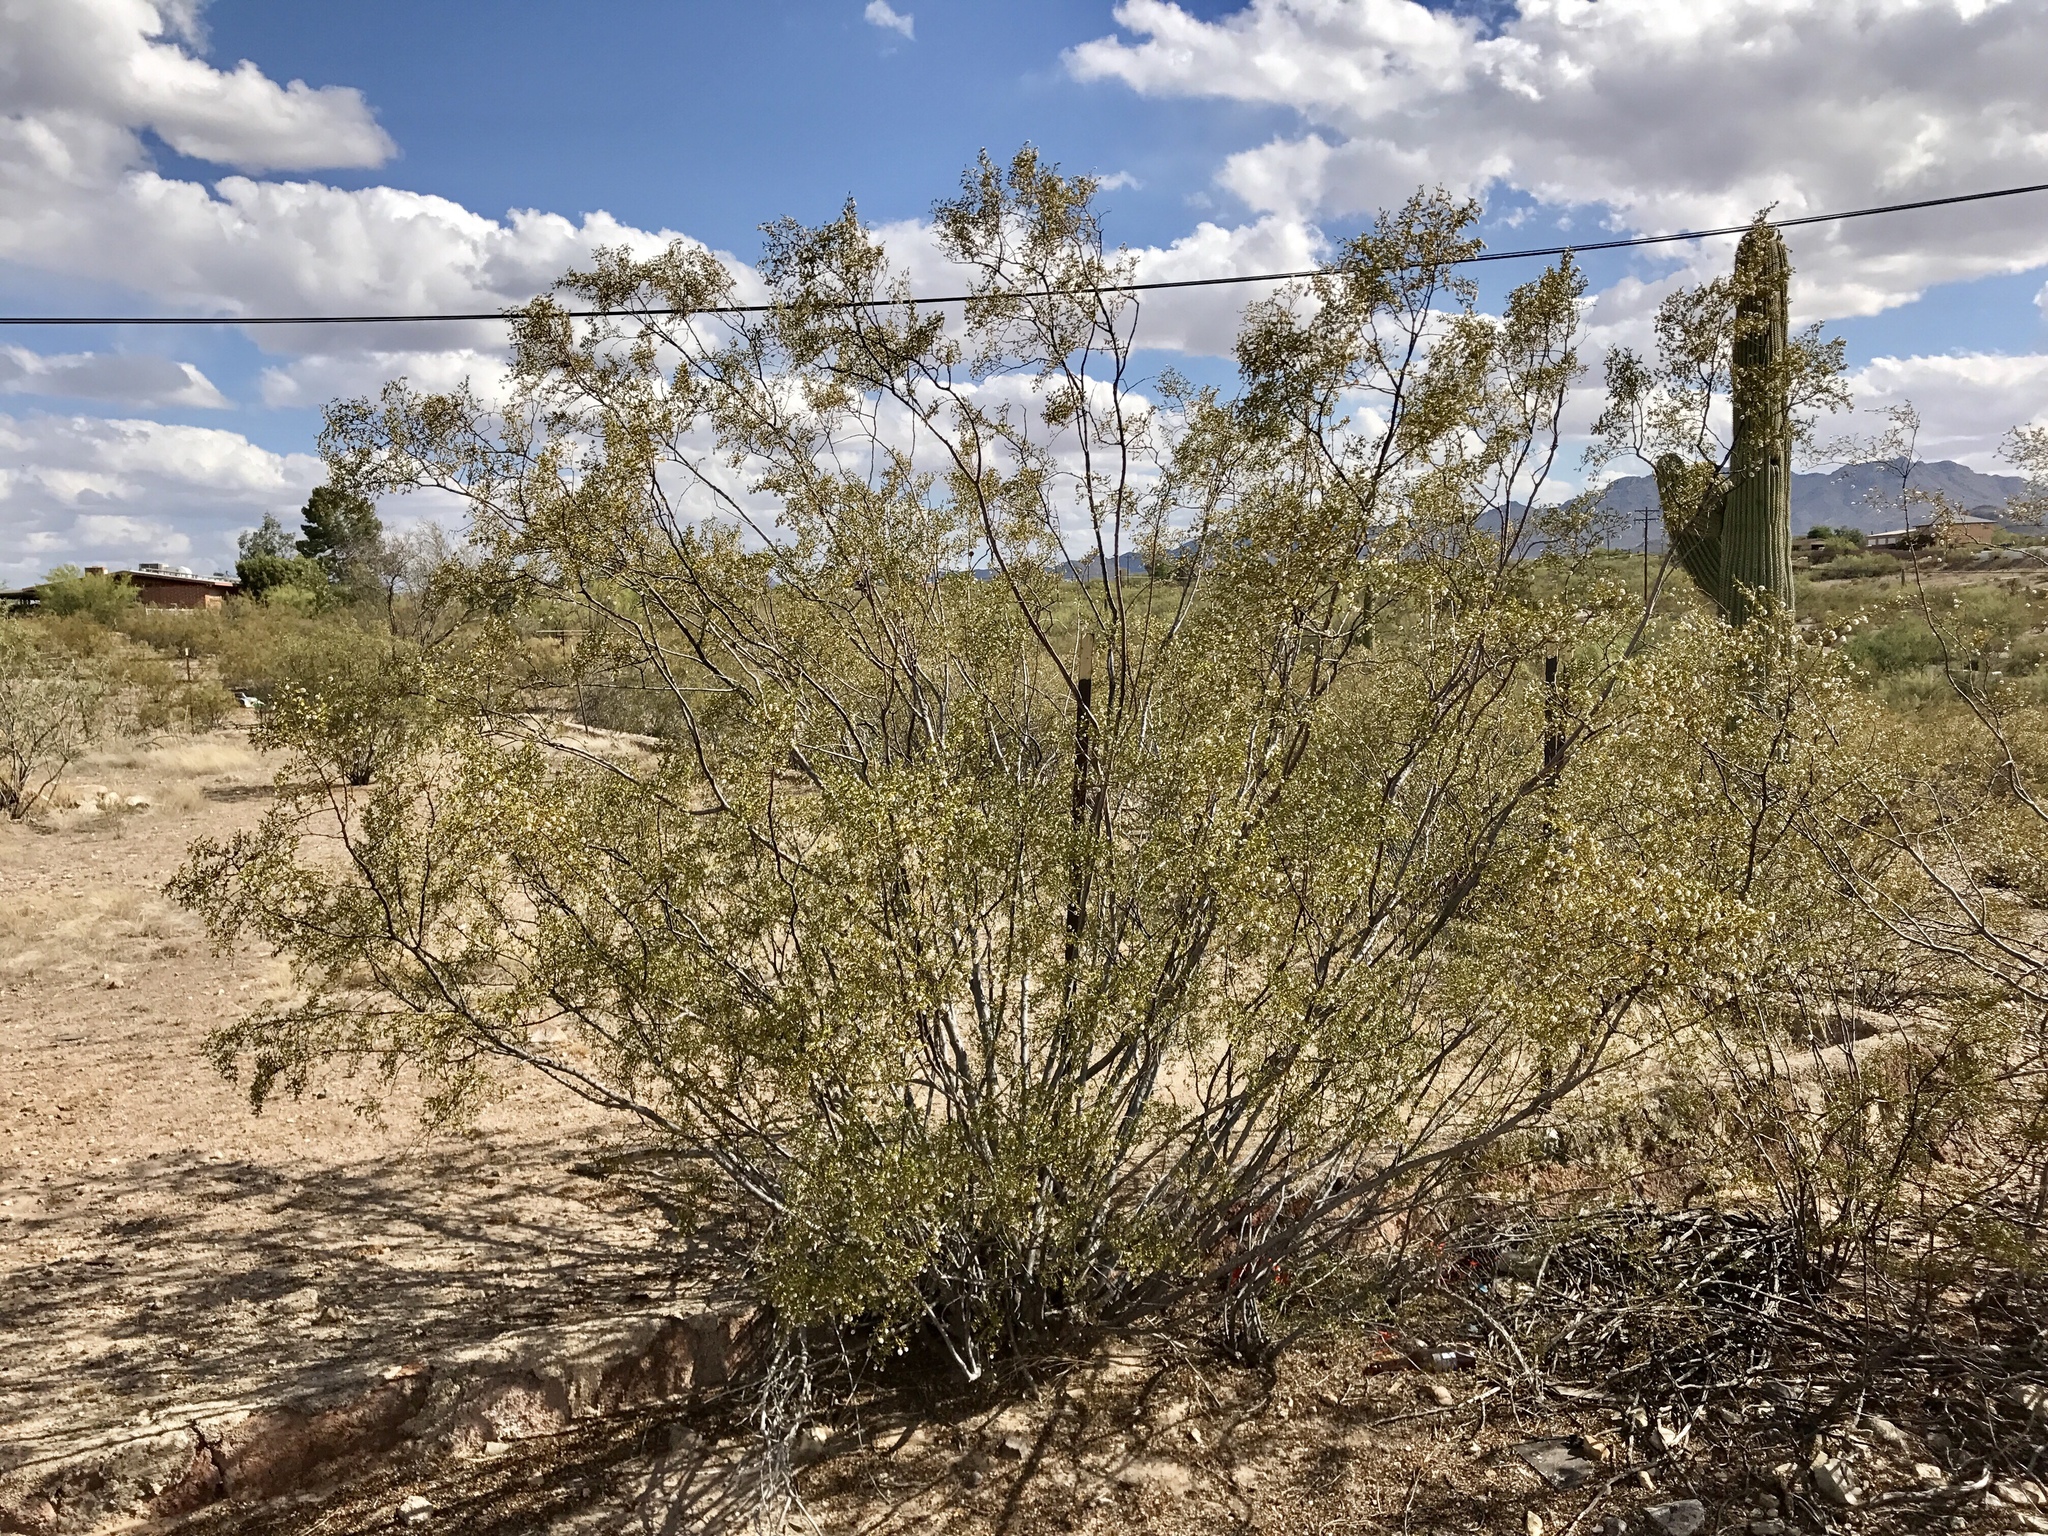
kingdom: Plantae
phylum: Tracheophyta
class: Magnoliopsida
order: Zygophyllales
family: Zygophyllaceae
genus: Larrea
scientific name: Larrea tridentata
